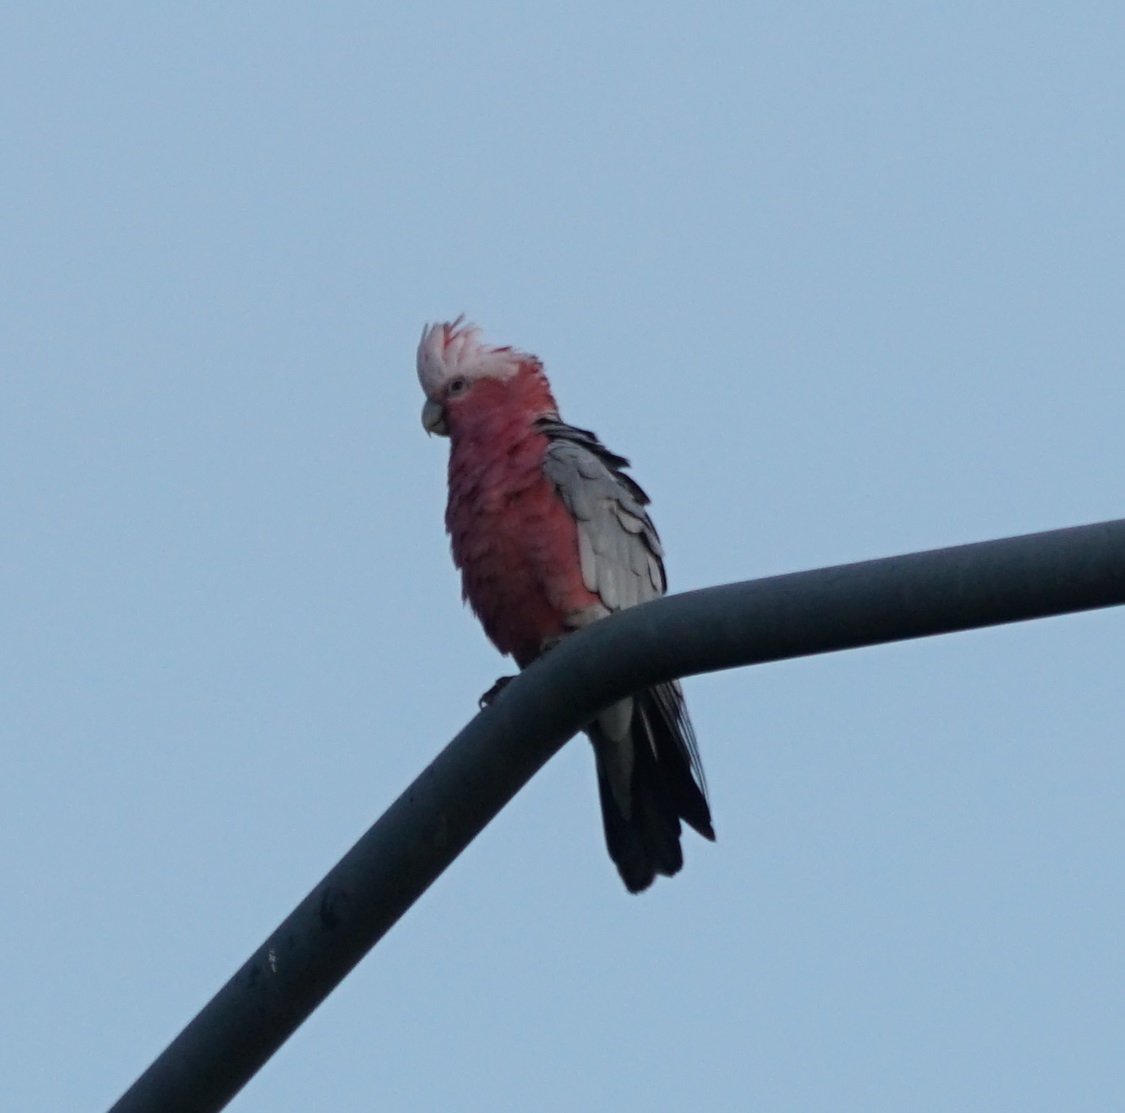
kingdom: Animalia
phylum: Chordata
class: Aves
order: Psittaciformes
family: Psittacidae
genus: Eolophus
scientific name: Eolophus roseicapilla
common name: Galah
